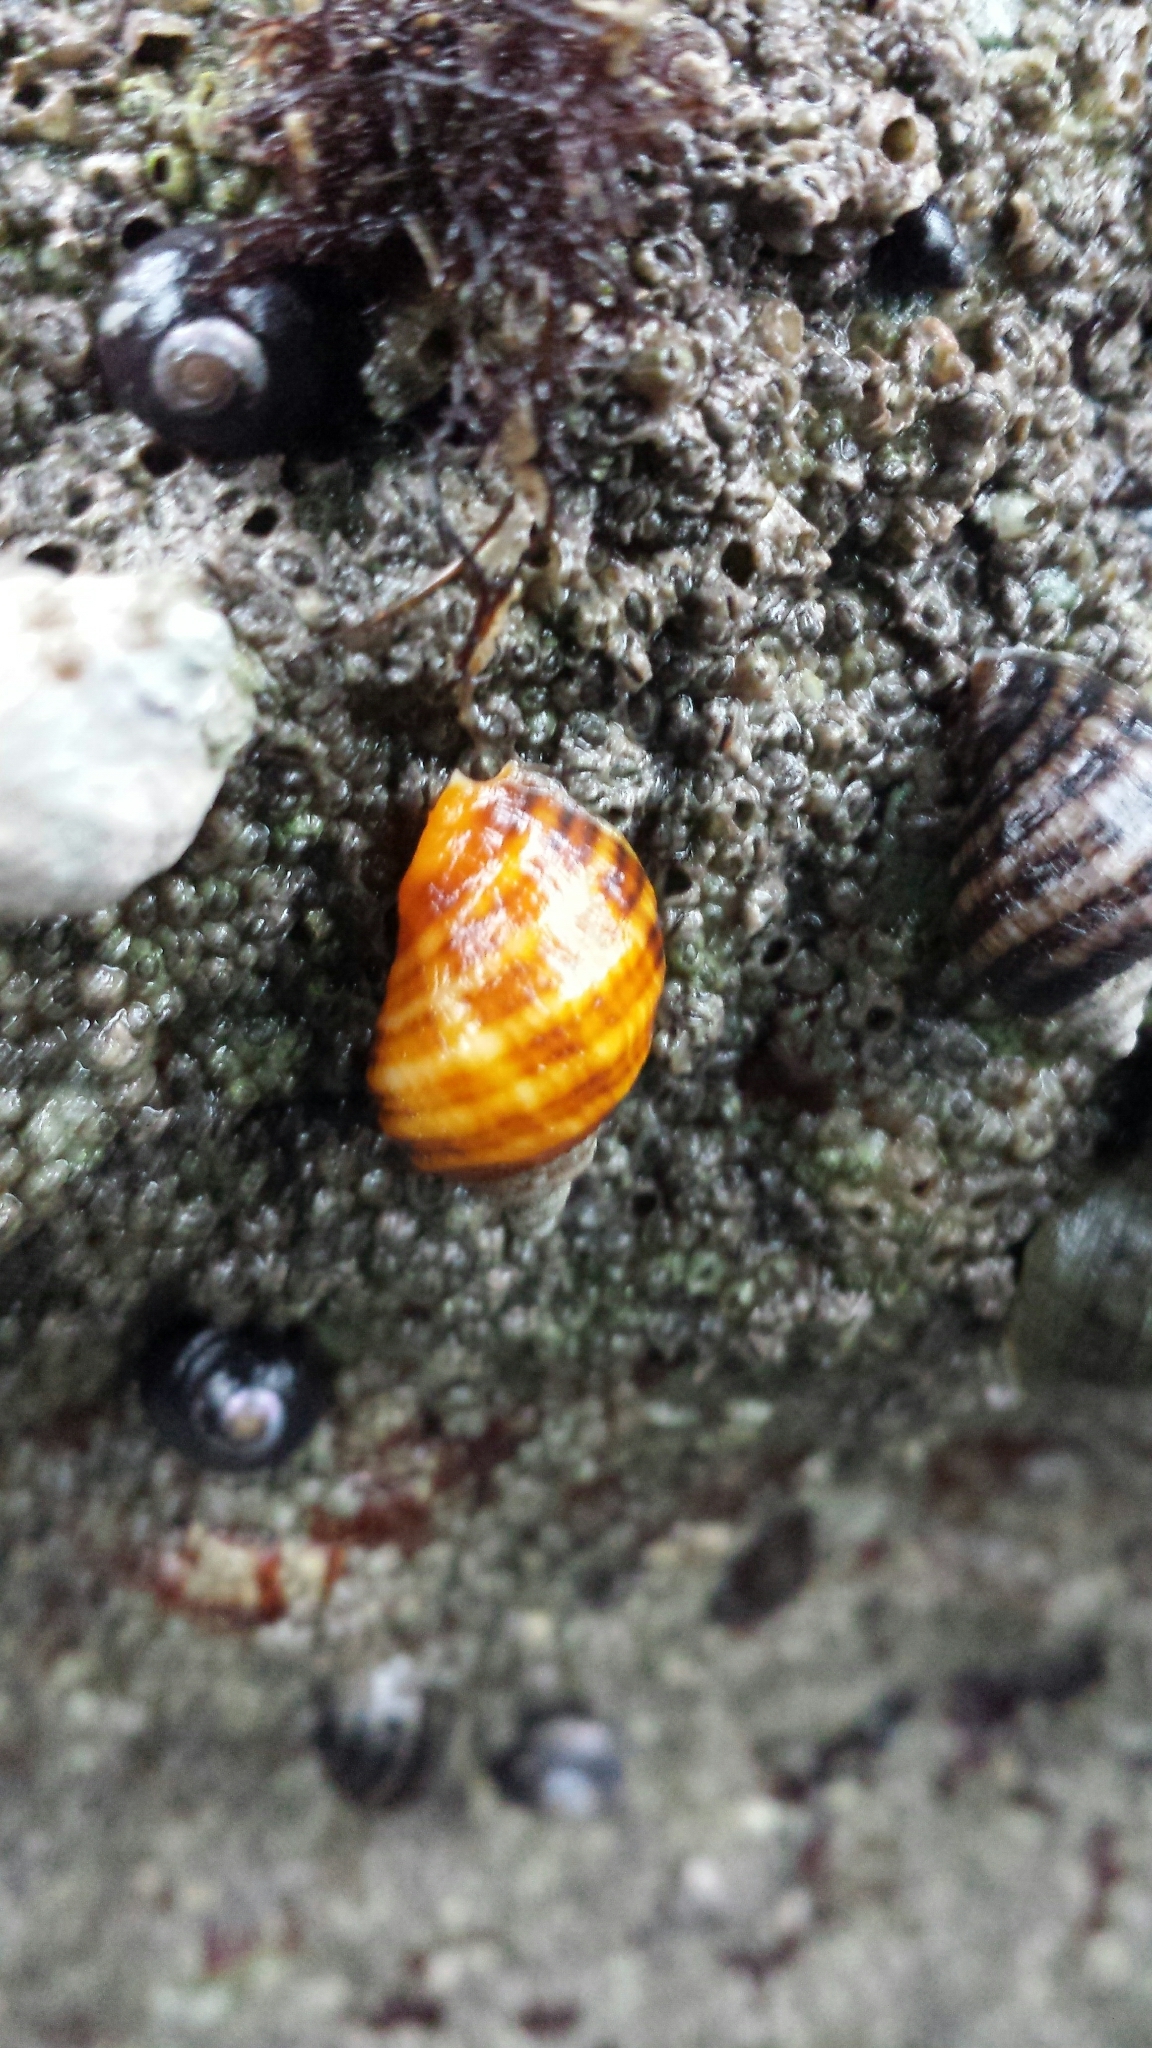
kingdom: Animalia
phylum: Mollusca
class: Gastropoda
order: Neogastropoda
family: Muricidae
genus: Nucella
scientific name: Nucella ostrina
